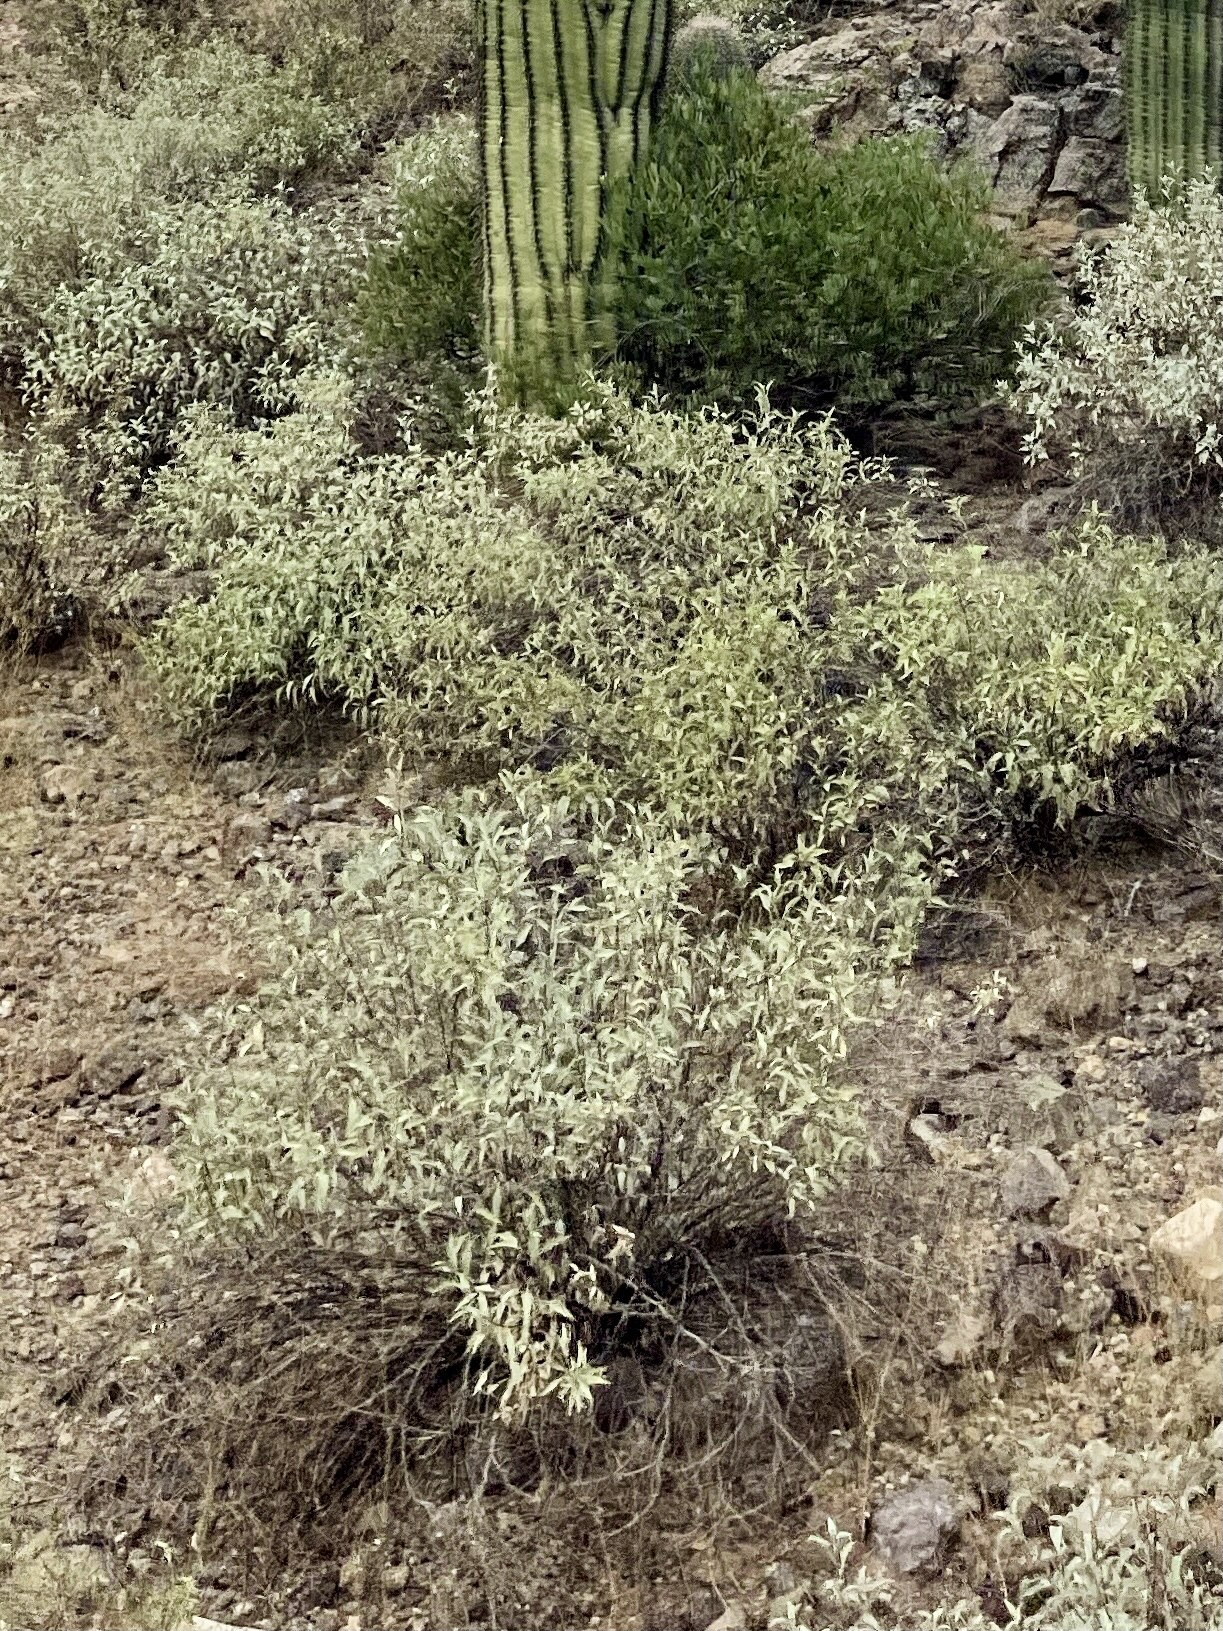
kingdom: Plantae
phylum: Tracheophyta
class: Magnoliopsida
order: Asterales
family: Asteraceae
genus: Ambrosia
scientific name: Ambrosia deltoidea
